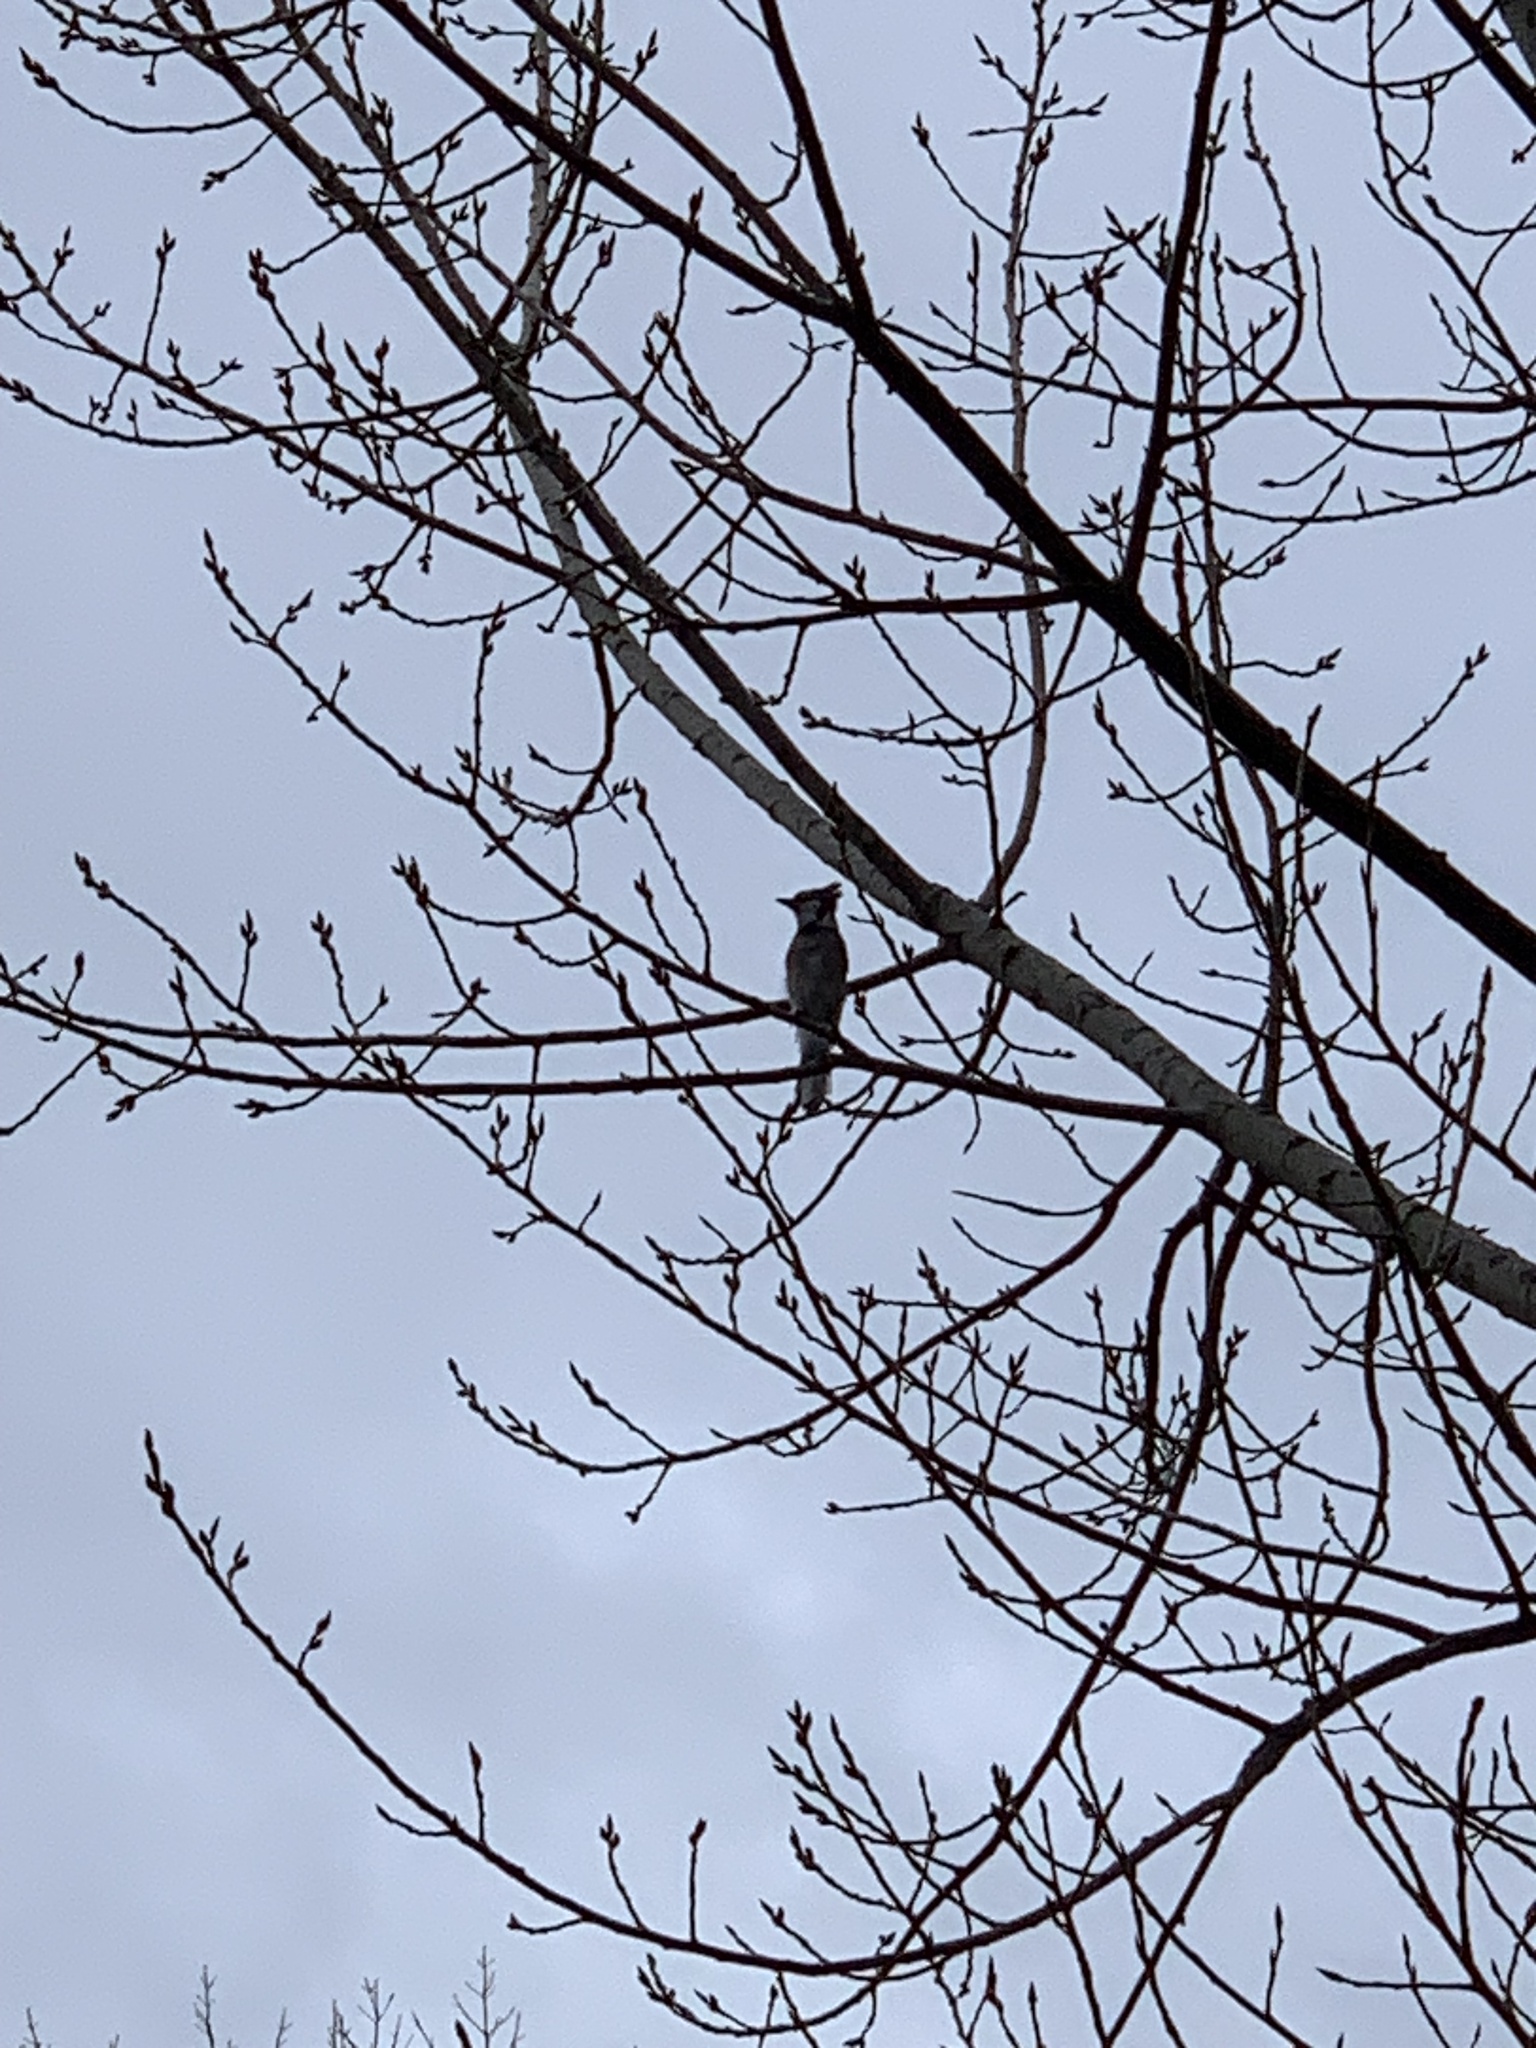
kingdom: Animalia
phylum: Chordata
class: Aves
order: Passeriformes
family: Corvidae
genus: Cyanocitta
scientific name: Cyanocitta cristata
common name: Blue jay
